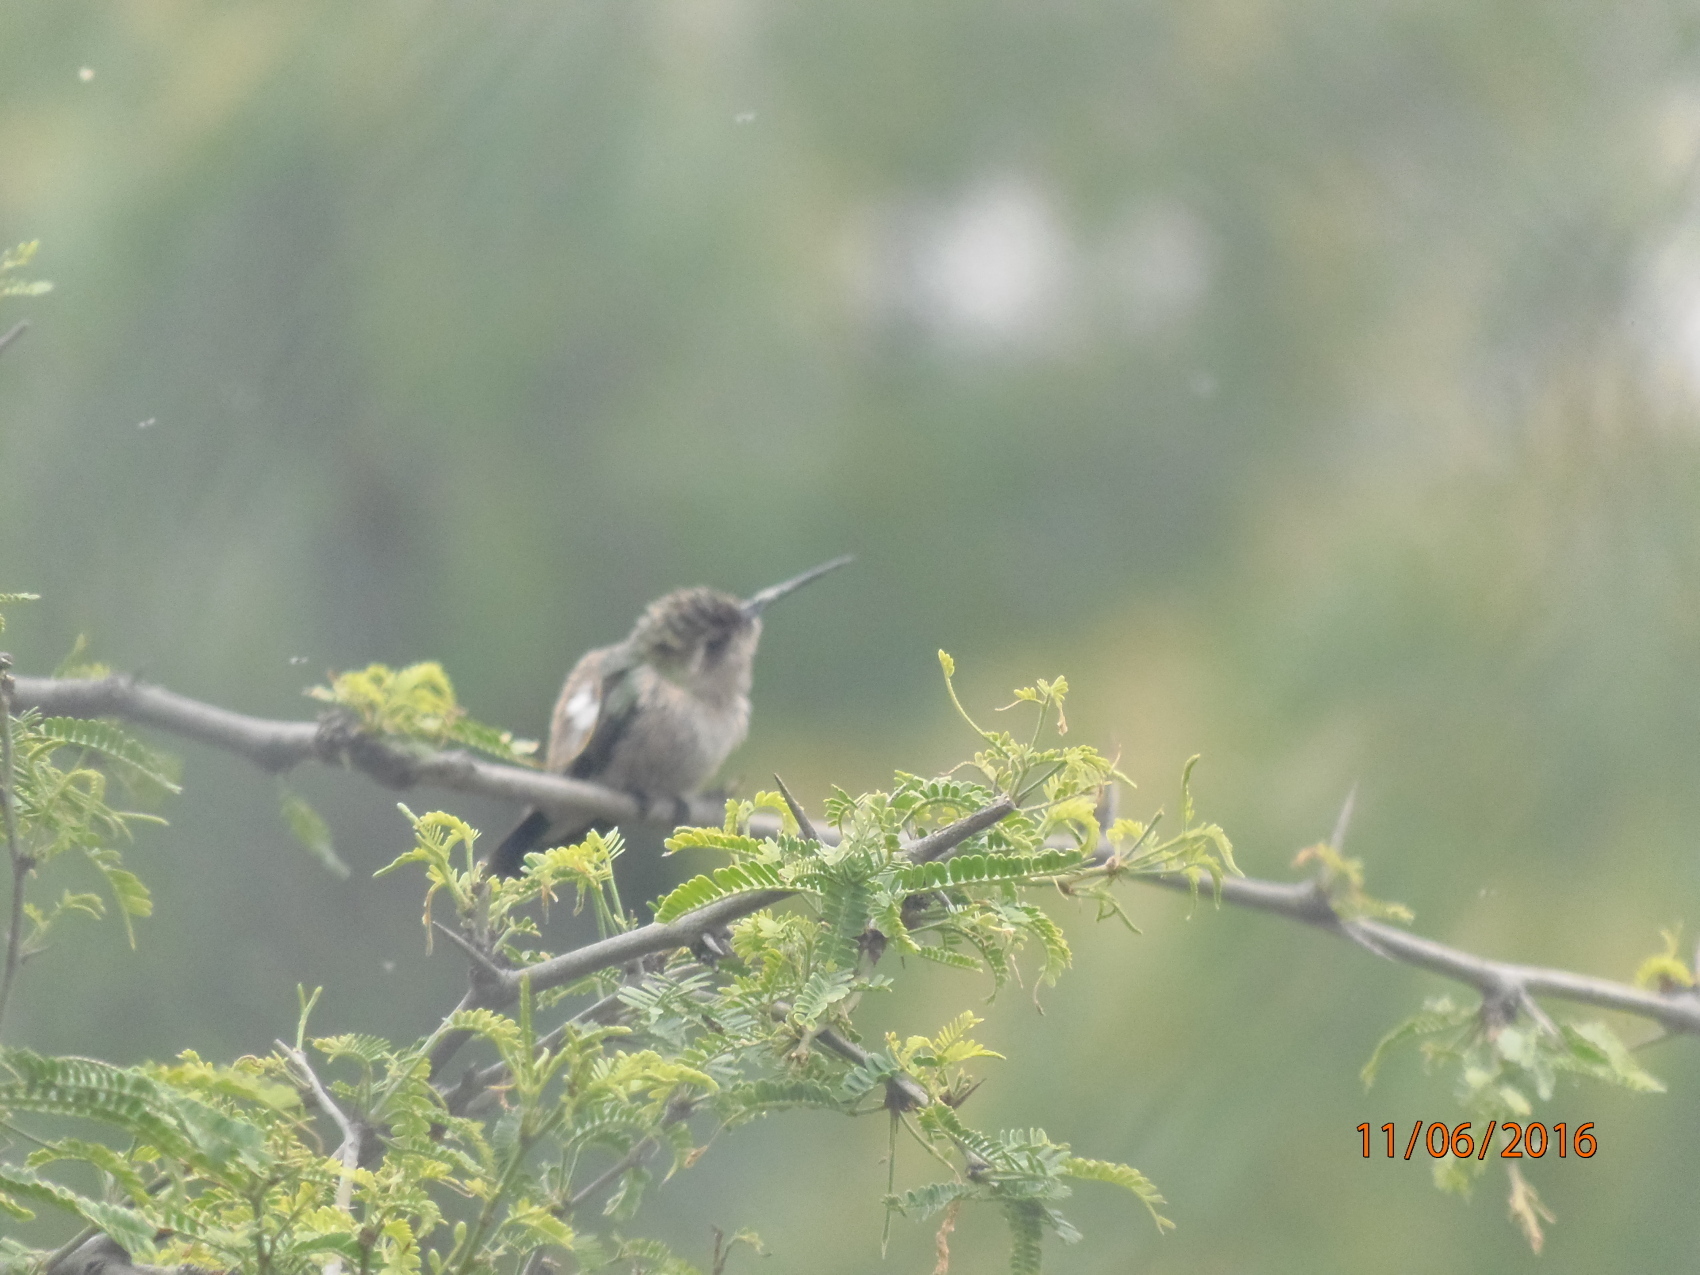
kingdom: Animalia
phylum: Chordata
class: Aves
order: Apodiformes
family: Trochilidae
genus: Cynanthus
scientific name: Cynanthus latirostris
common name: Broad-billed hummingbird
